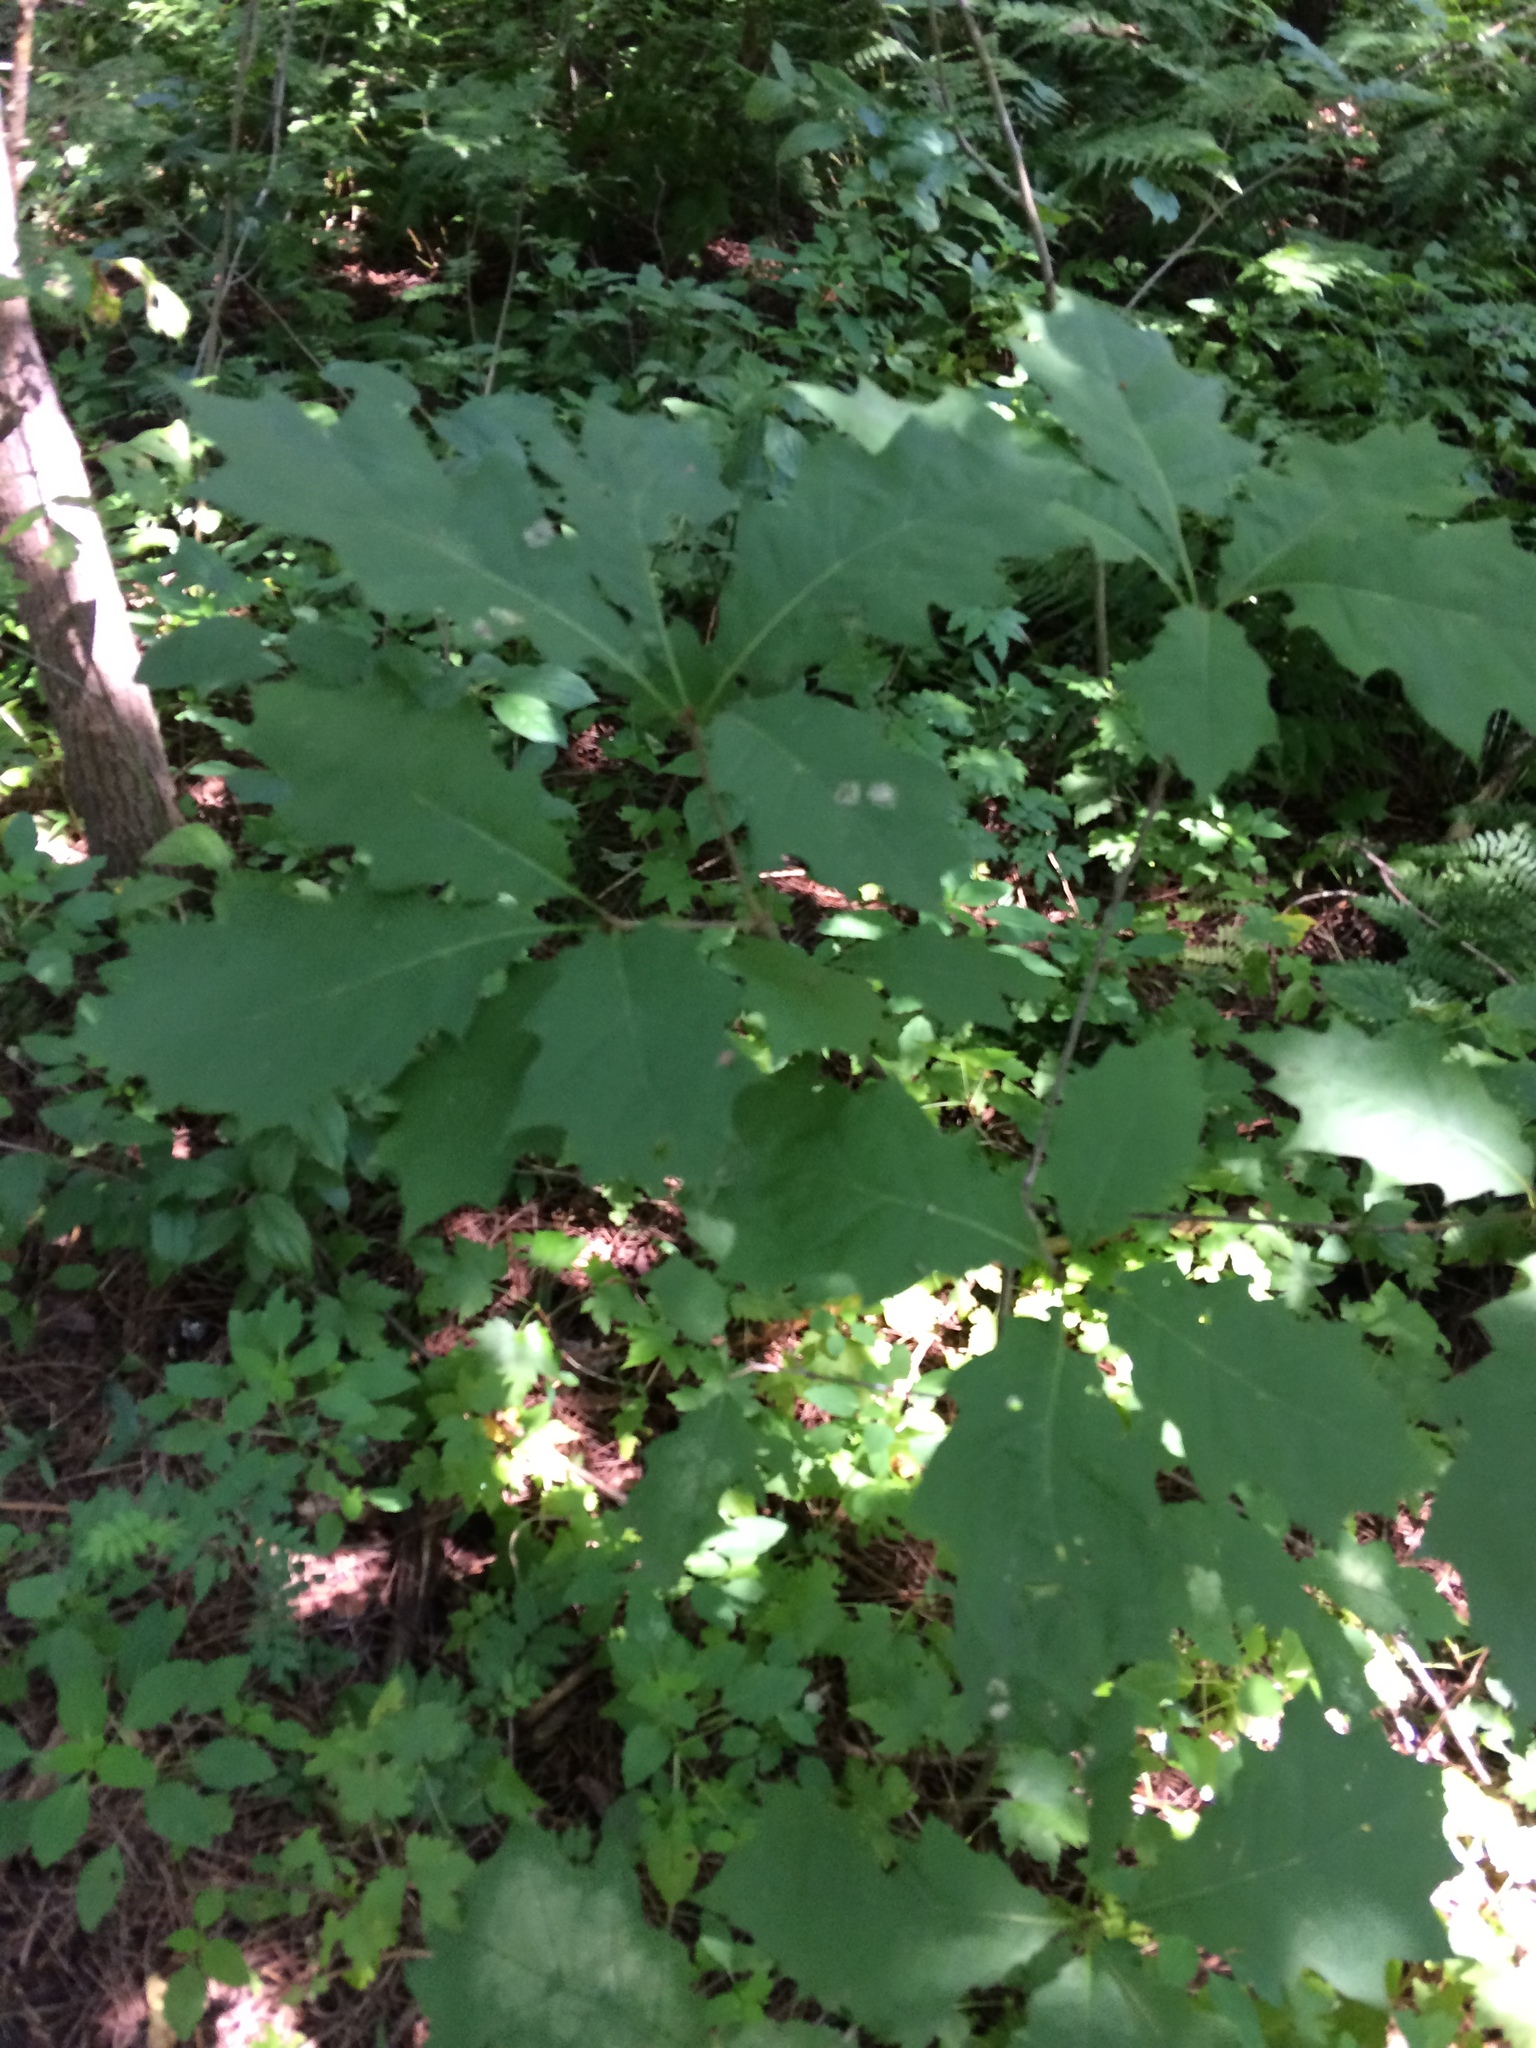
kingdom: Plantae
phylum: Tracheophyta
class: Magnoliopsida
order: Fagales
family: Fagaceae
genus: Quercus
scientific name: Quercus rubra
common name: Red oak
